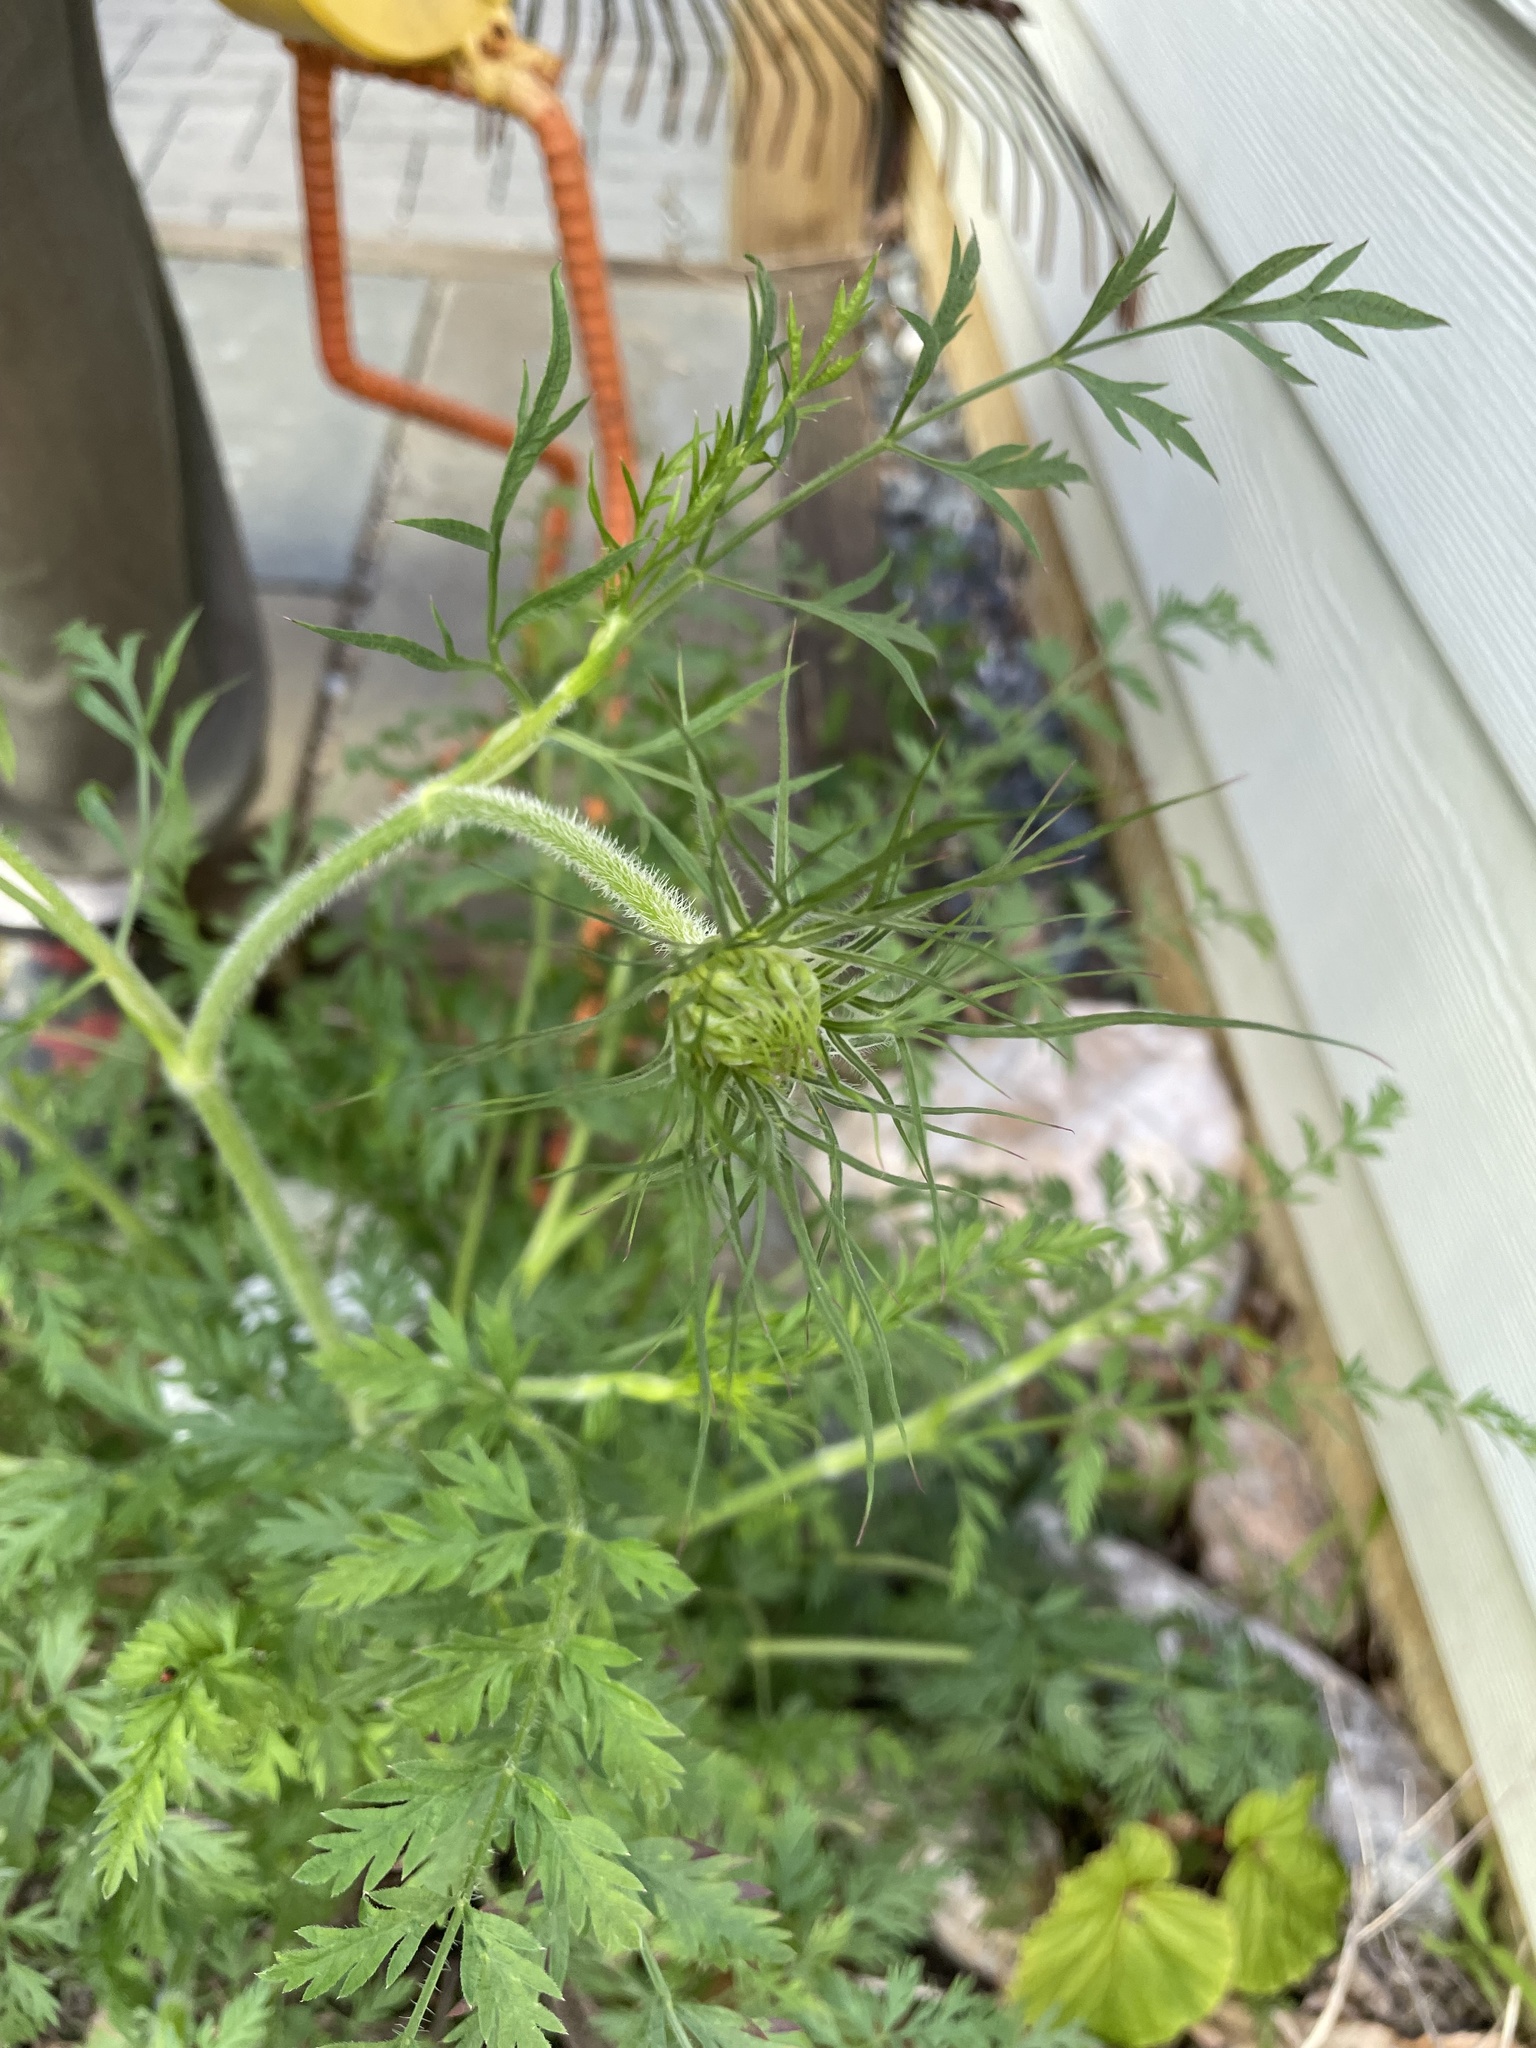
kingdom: Plantae
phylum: Tracheophyta
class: Magnoliopsida
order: Apiales
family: Apiaceae
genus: Daucus
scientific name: Daucus carota
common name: Wild carrot
